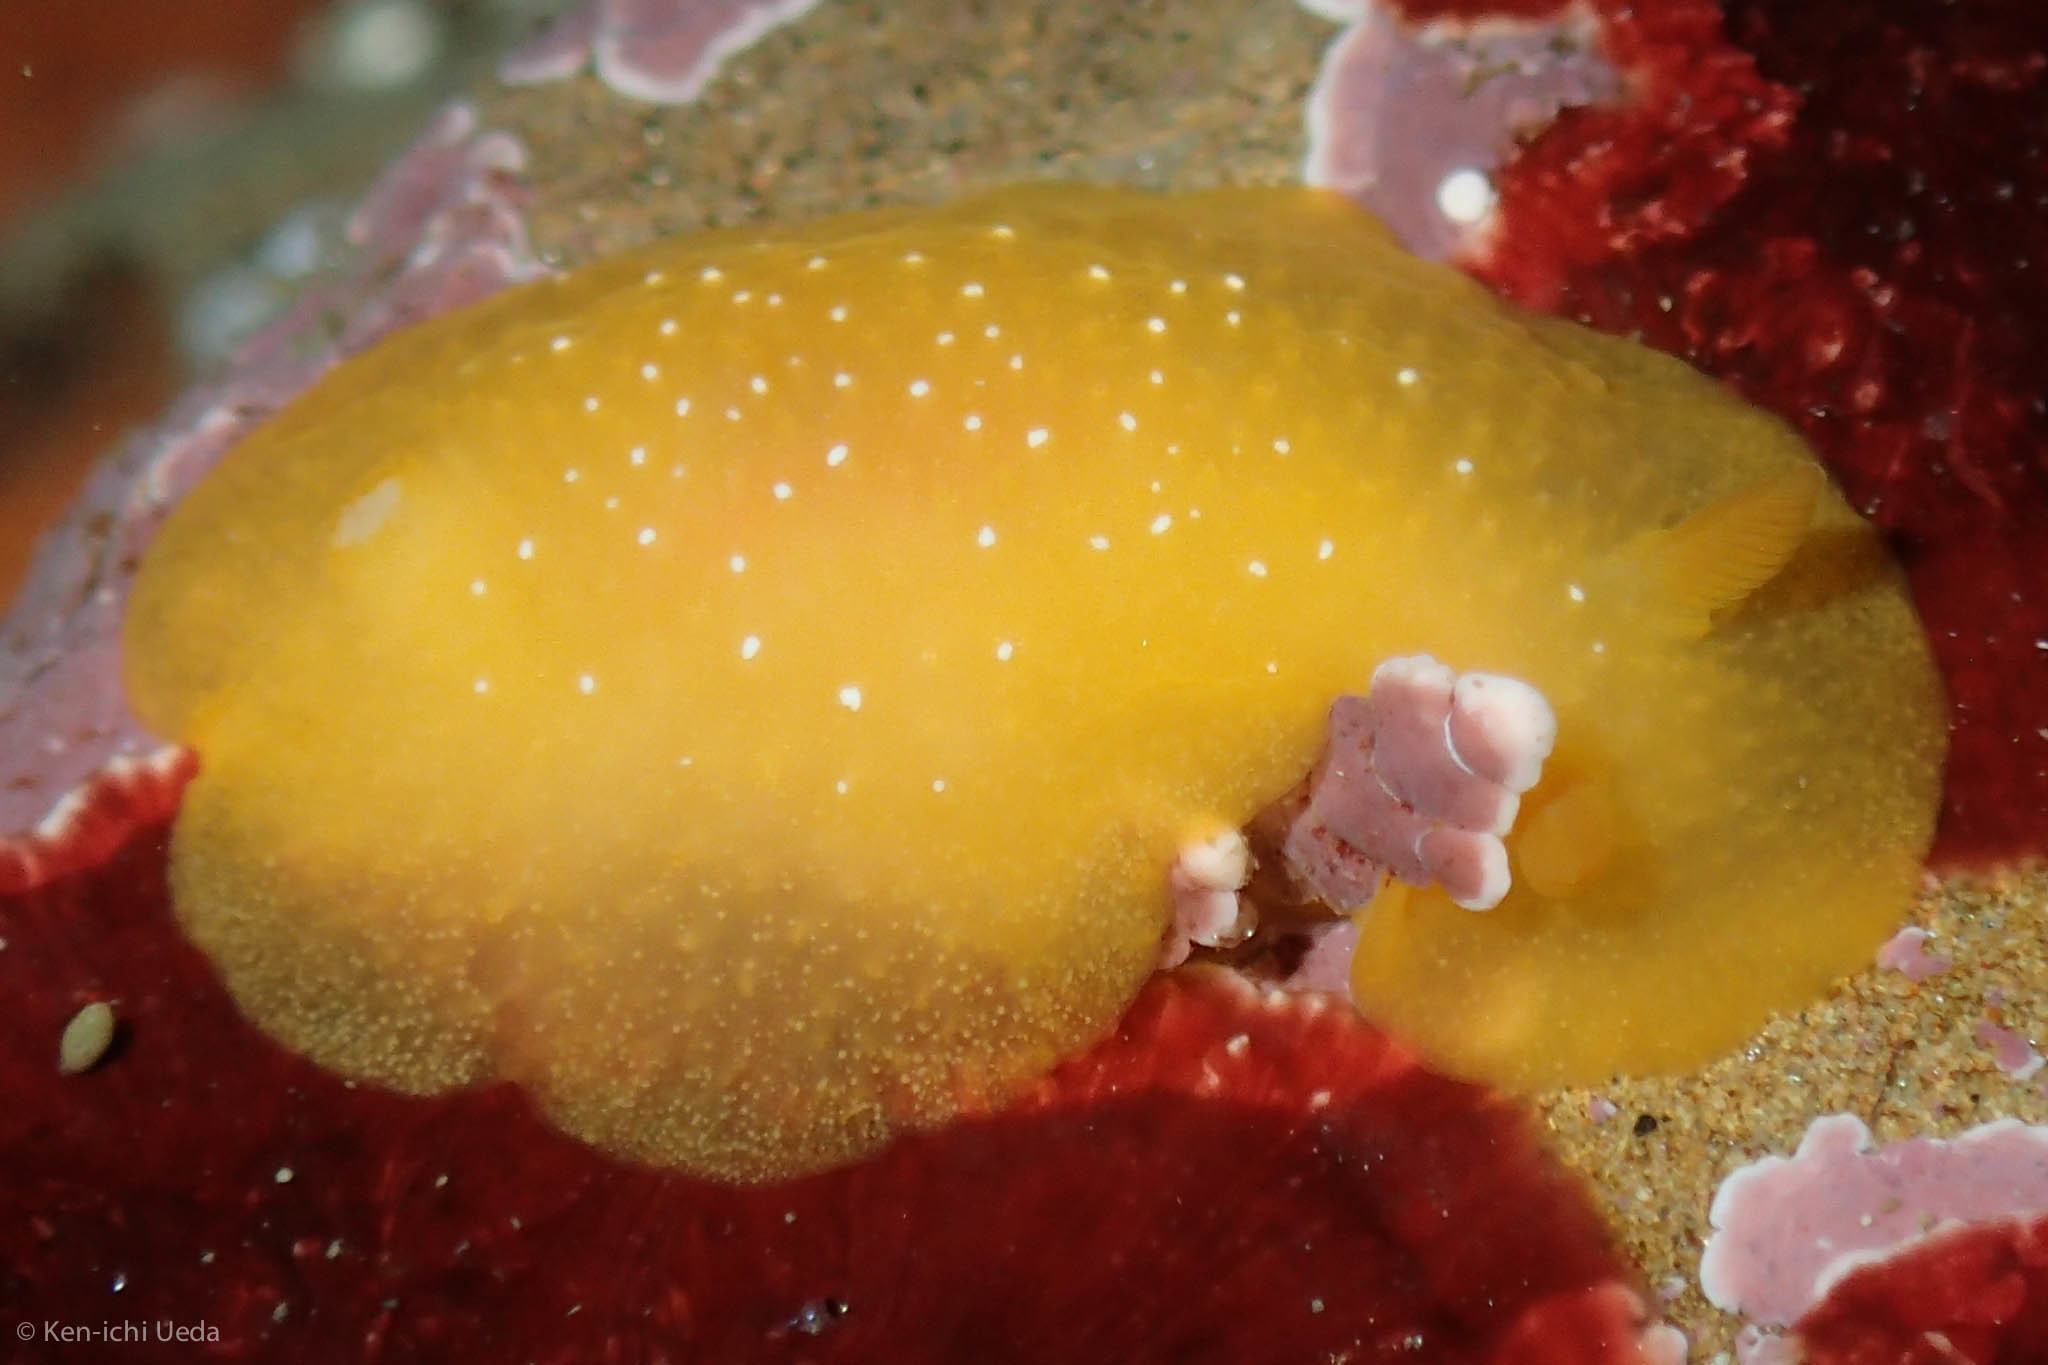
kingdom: Animalia
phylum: Mollusca
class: Gastropoda
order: Nudibranchia
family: Dendrodorididae
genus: Doriopsilla
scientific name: Doriopsilla fulva
